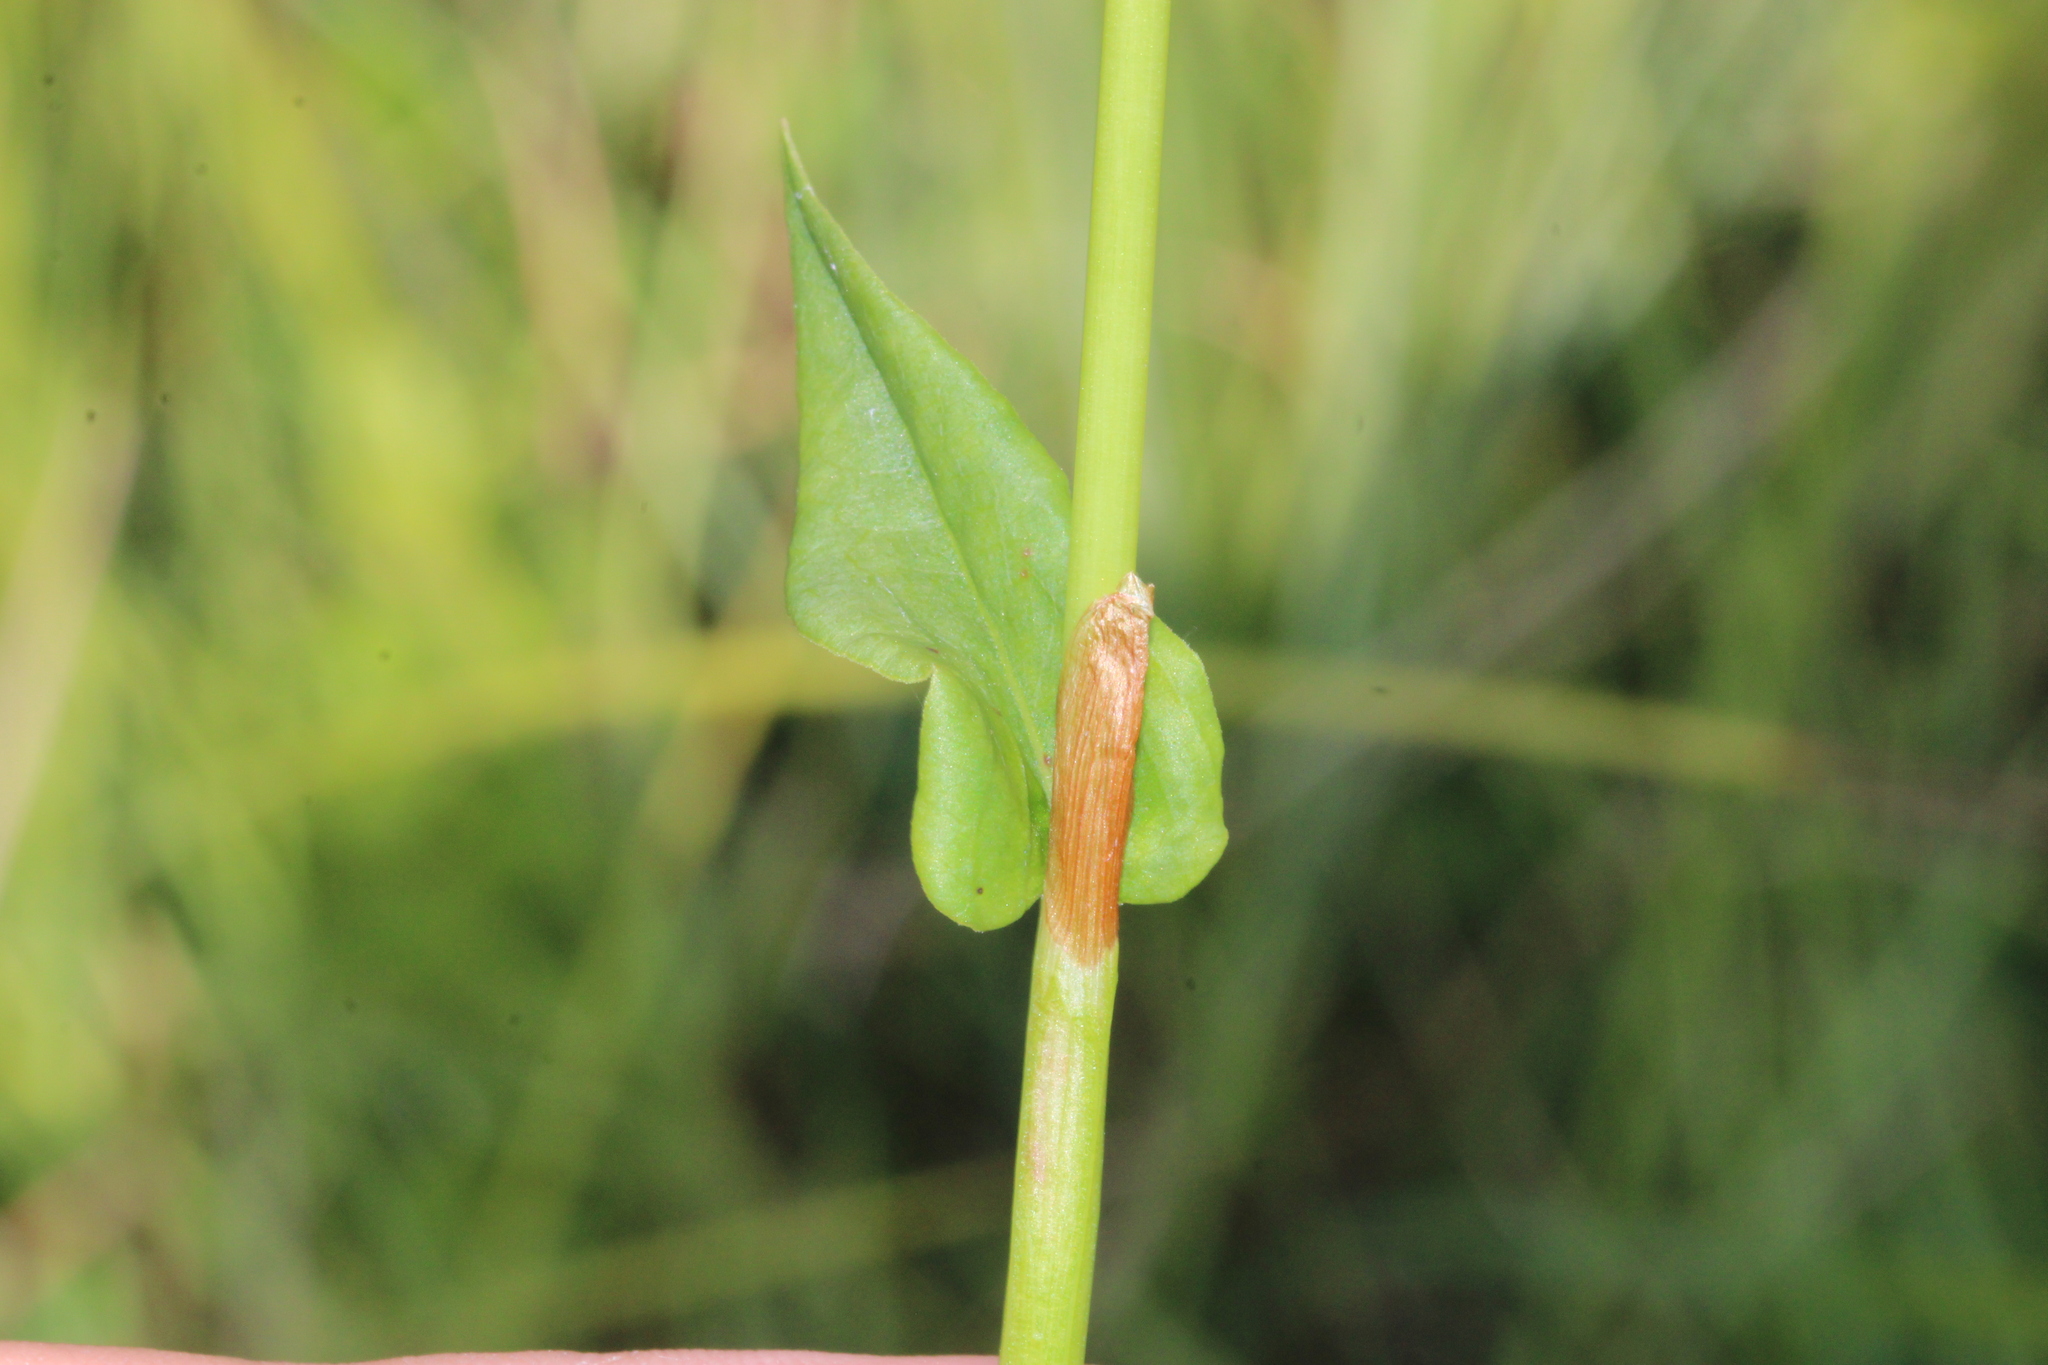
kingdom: Plantae
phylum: Tracheophyta
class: Magnoliopsida
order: Caryophyllales
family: Polygonaceae
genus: Bistorta
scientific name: Bistorta officinalis
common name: Common bistort
